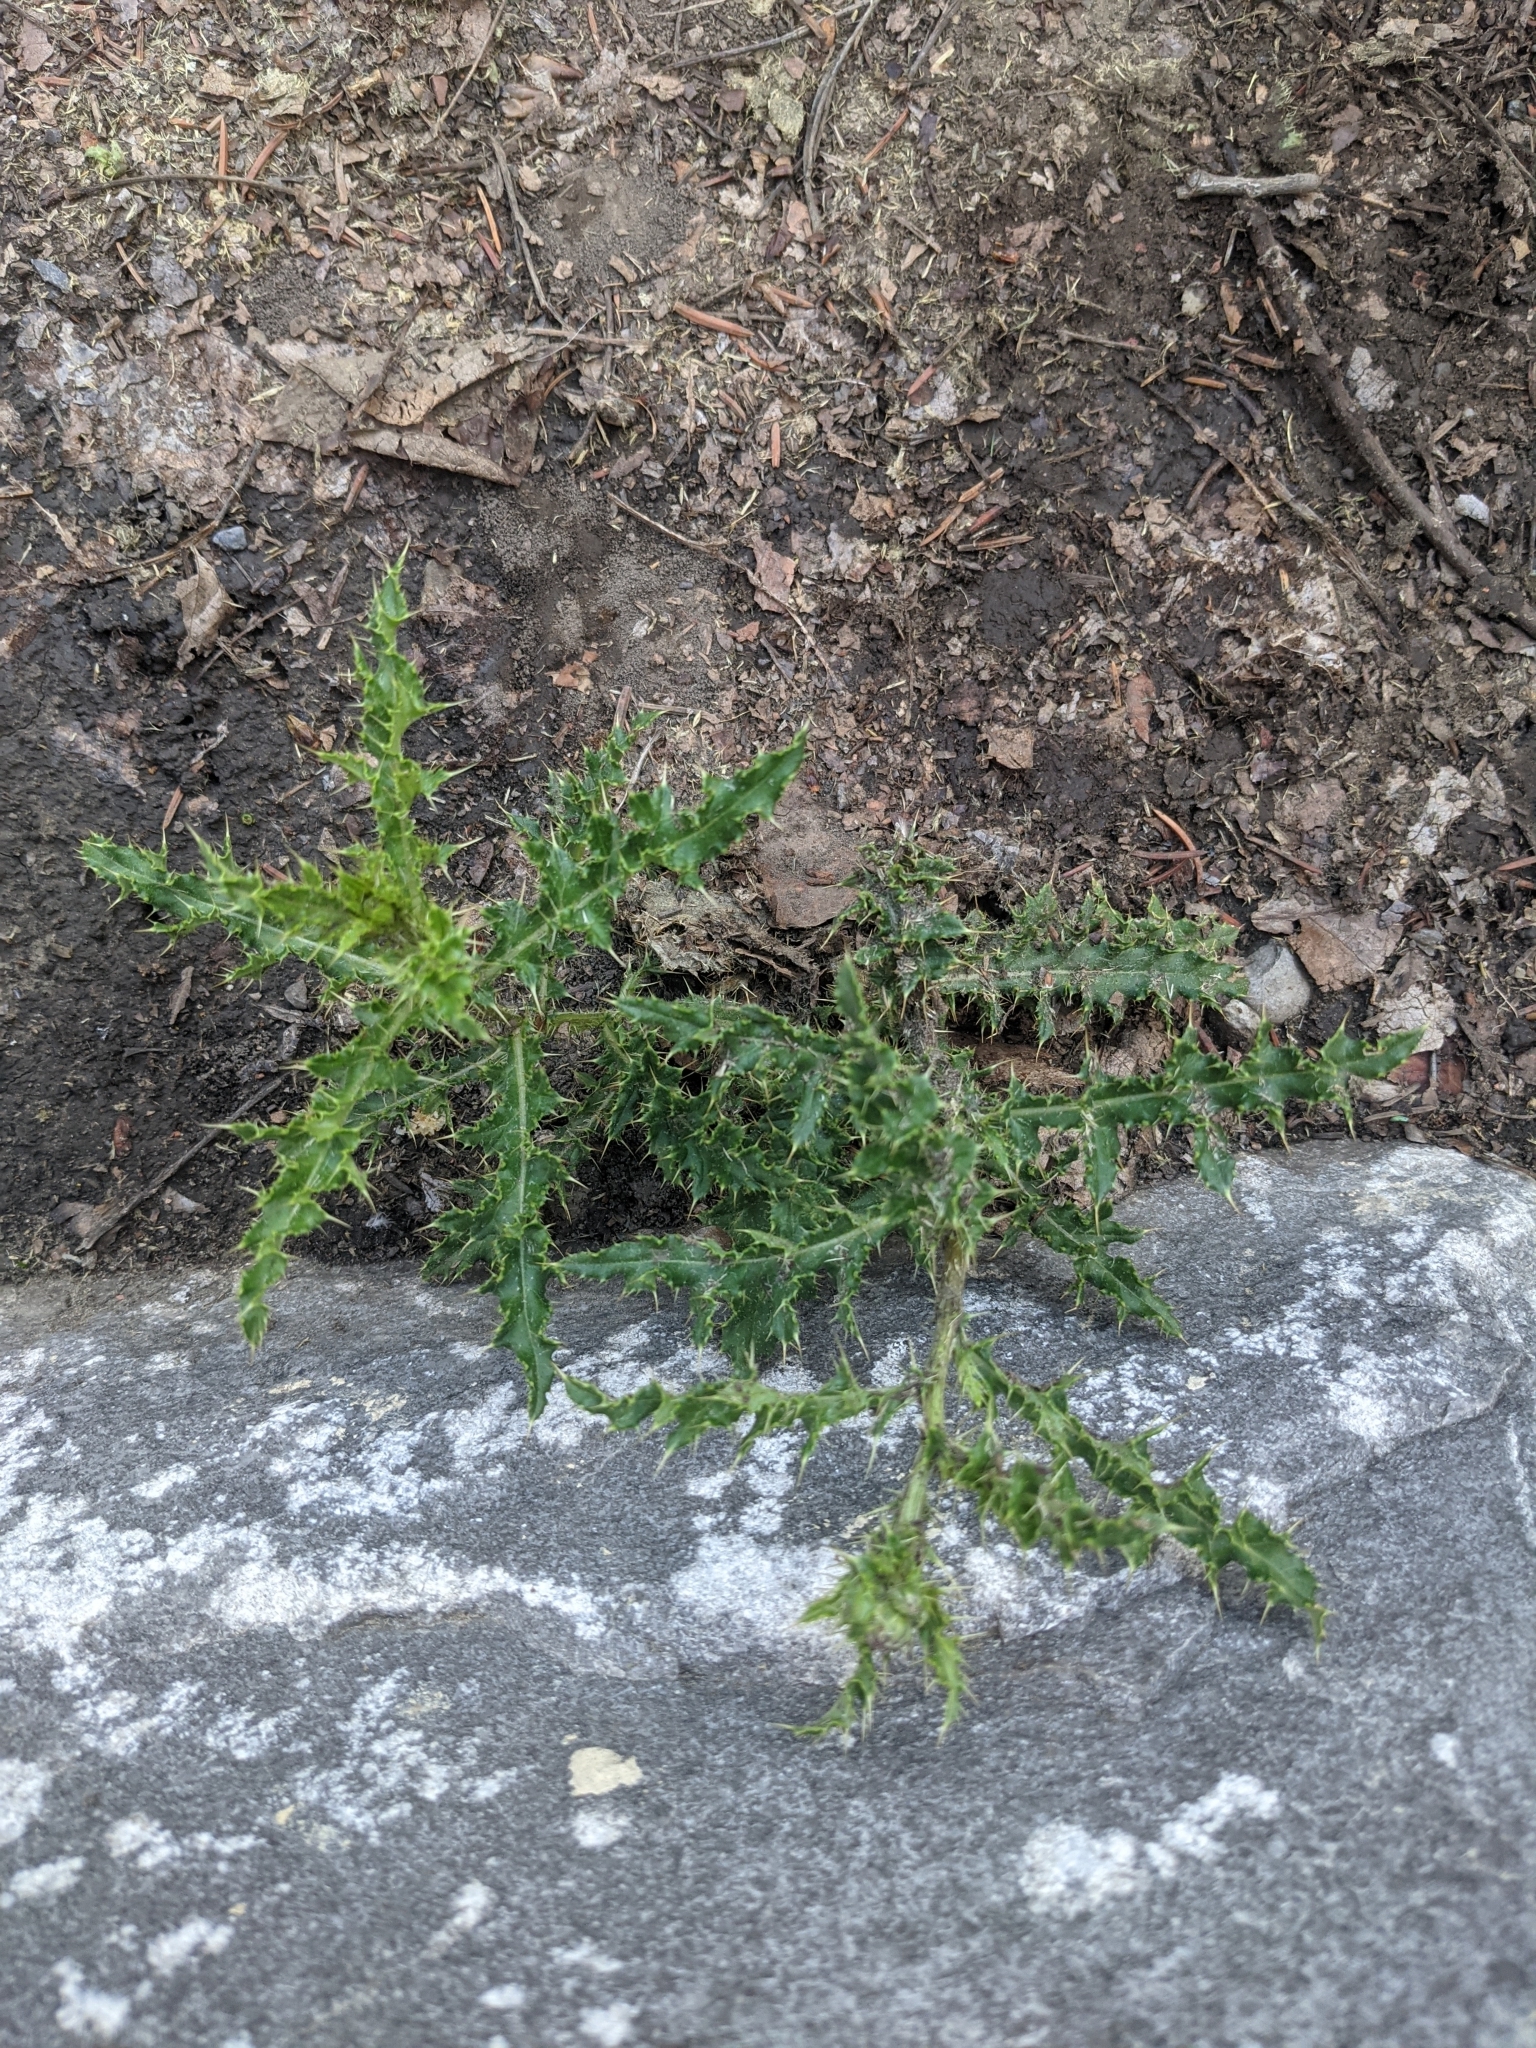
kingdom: Plantae
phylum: Tracheophyta
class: Magnoliopsida
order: Asterales
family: Asteraceae
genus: Cirsium
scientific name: Cirsium arvense
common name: Creeping thistle
